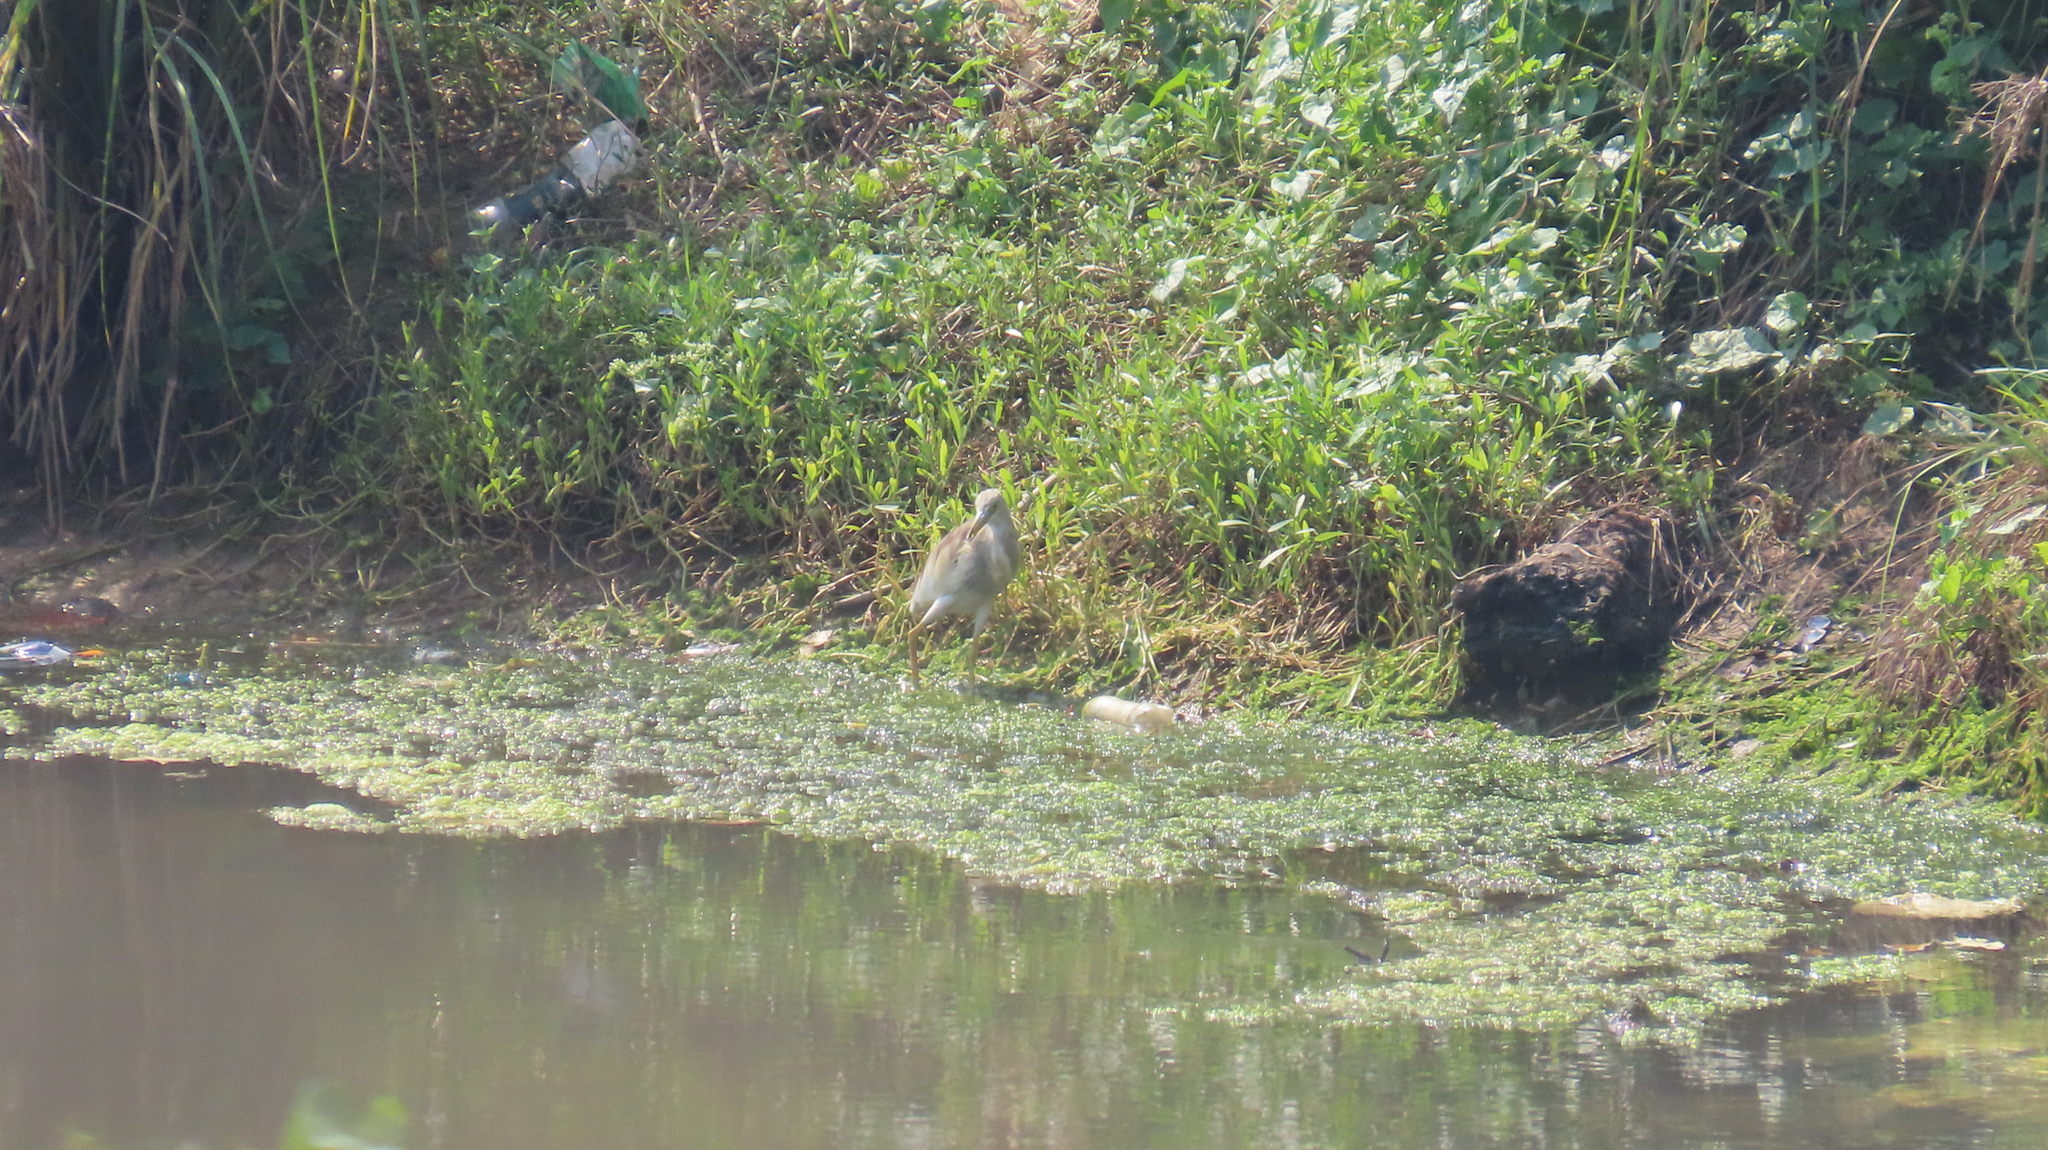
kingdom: Animalia
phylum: Chordata
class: Aves
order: Pelecaniformes
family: Ardeidae
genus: Ardeola
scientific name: Ardeola grayii
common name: Indian pond heron
